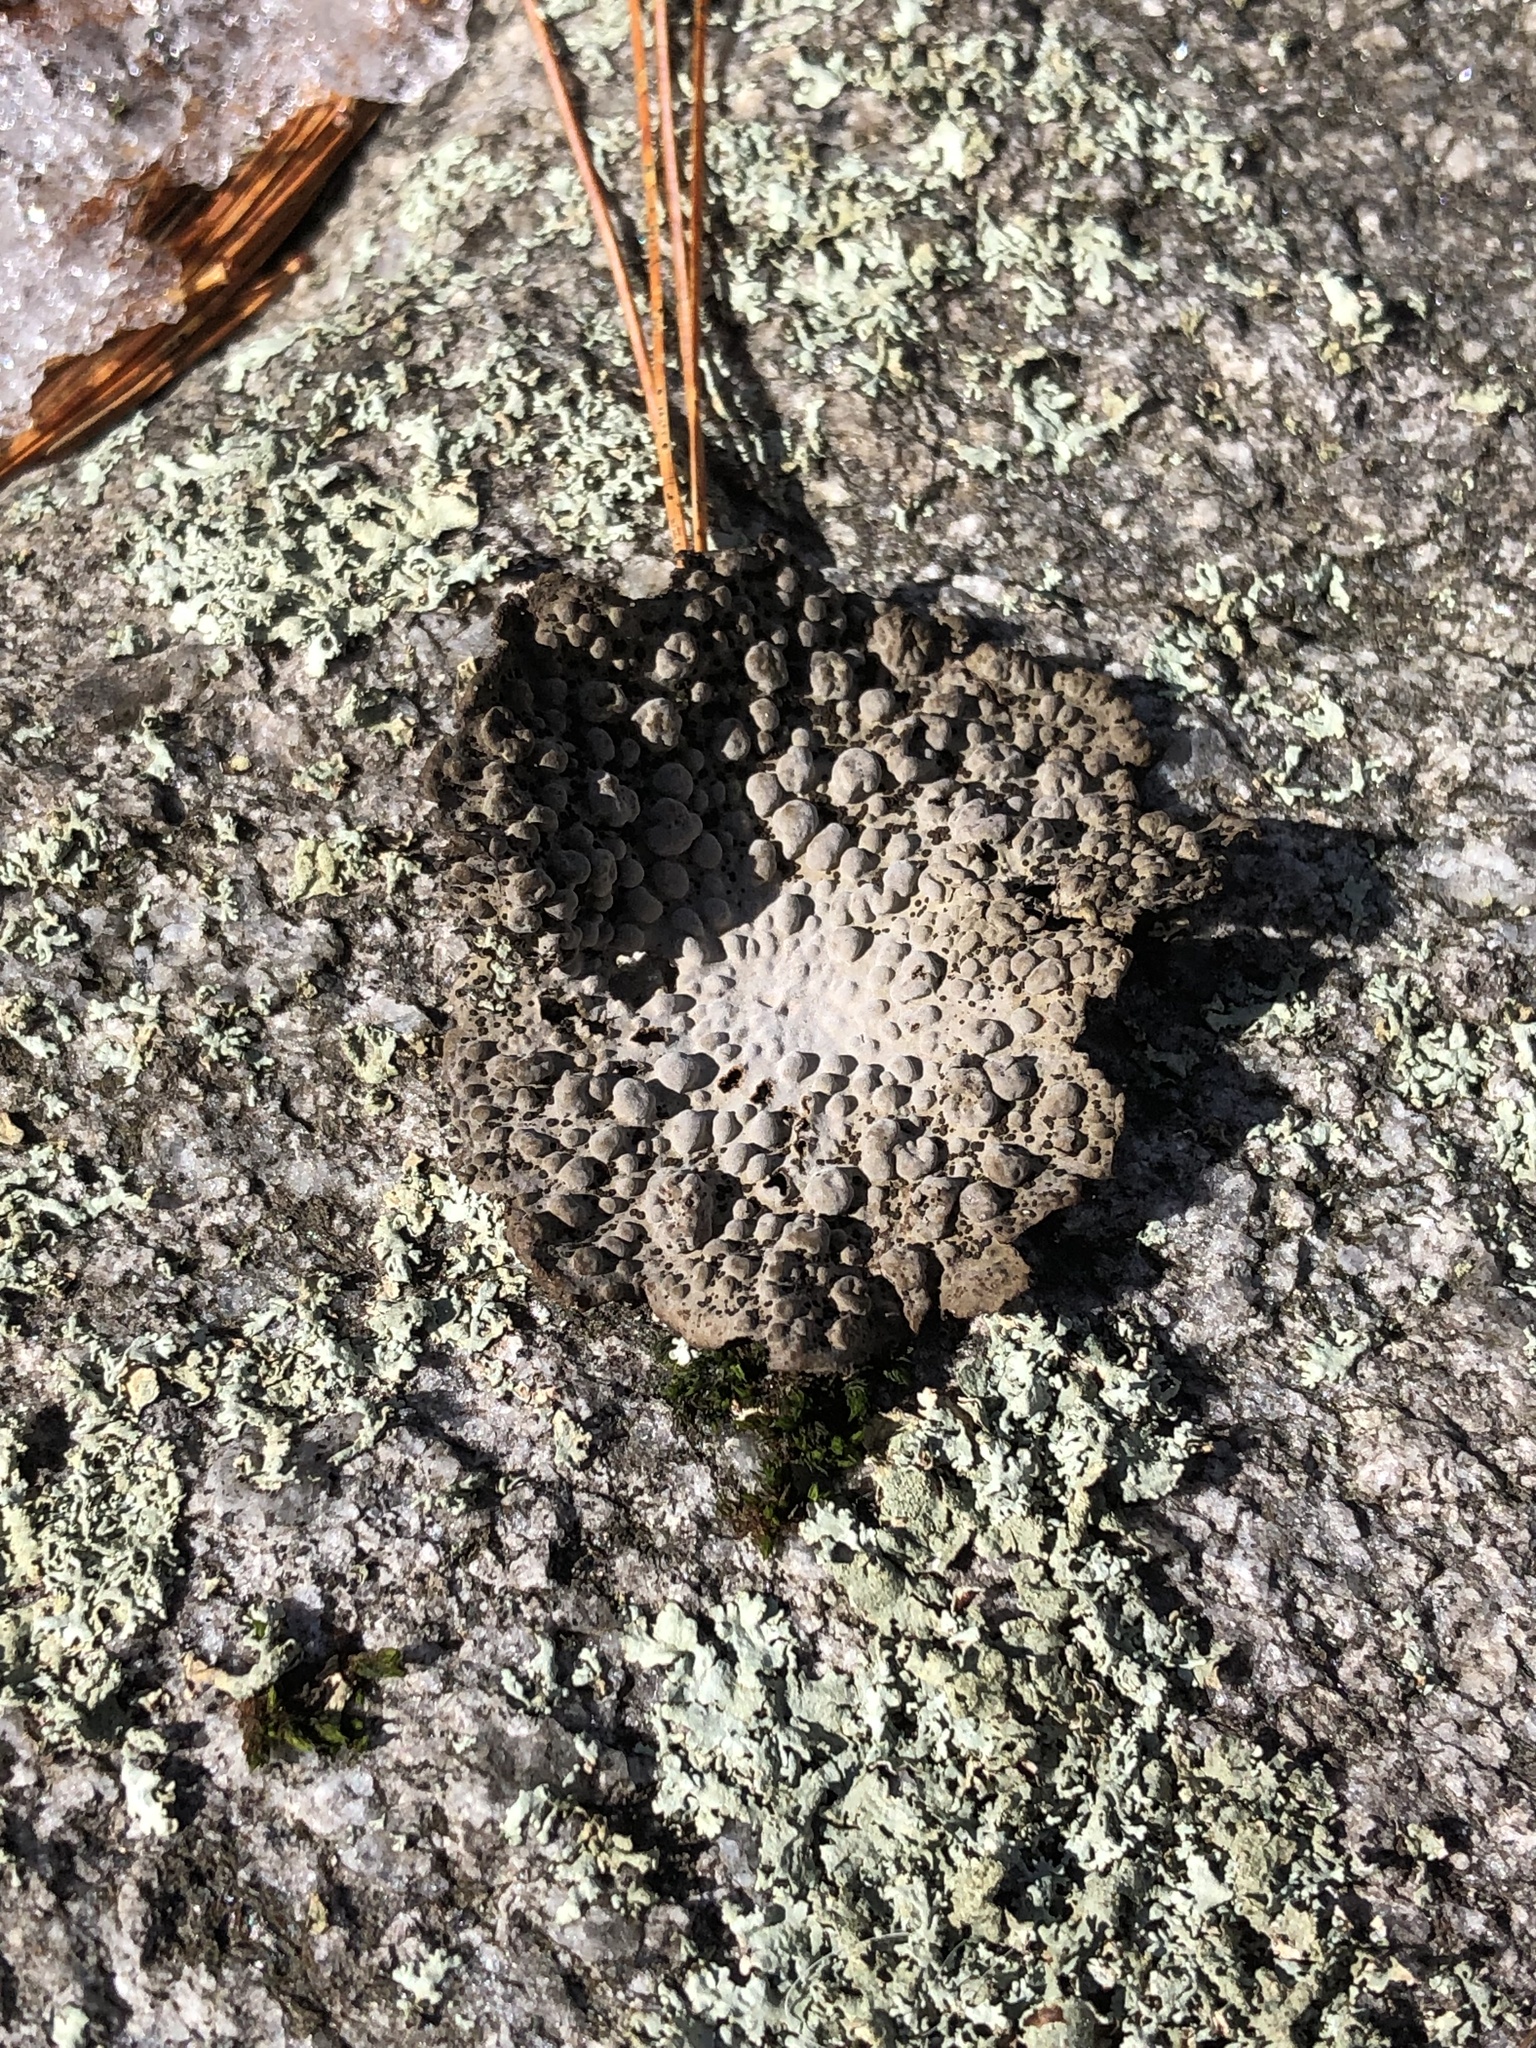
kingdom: Fungi
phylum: Ascomycota
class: Lecanoromycetes
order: Umbilicariales
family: Umbilicariaceae
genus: Lasallia
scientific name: Lasallia papulosa
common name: Common toadskin lichen
